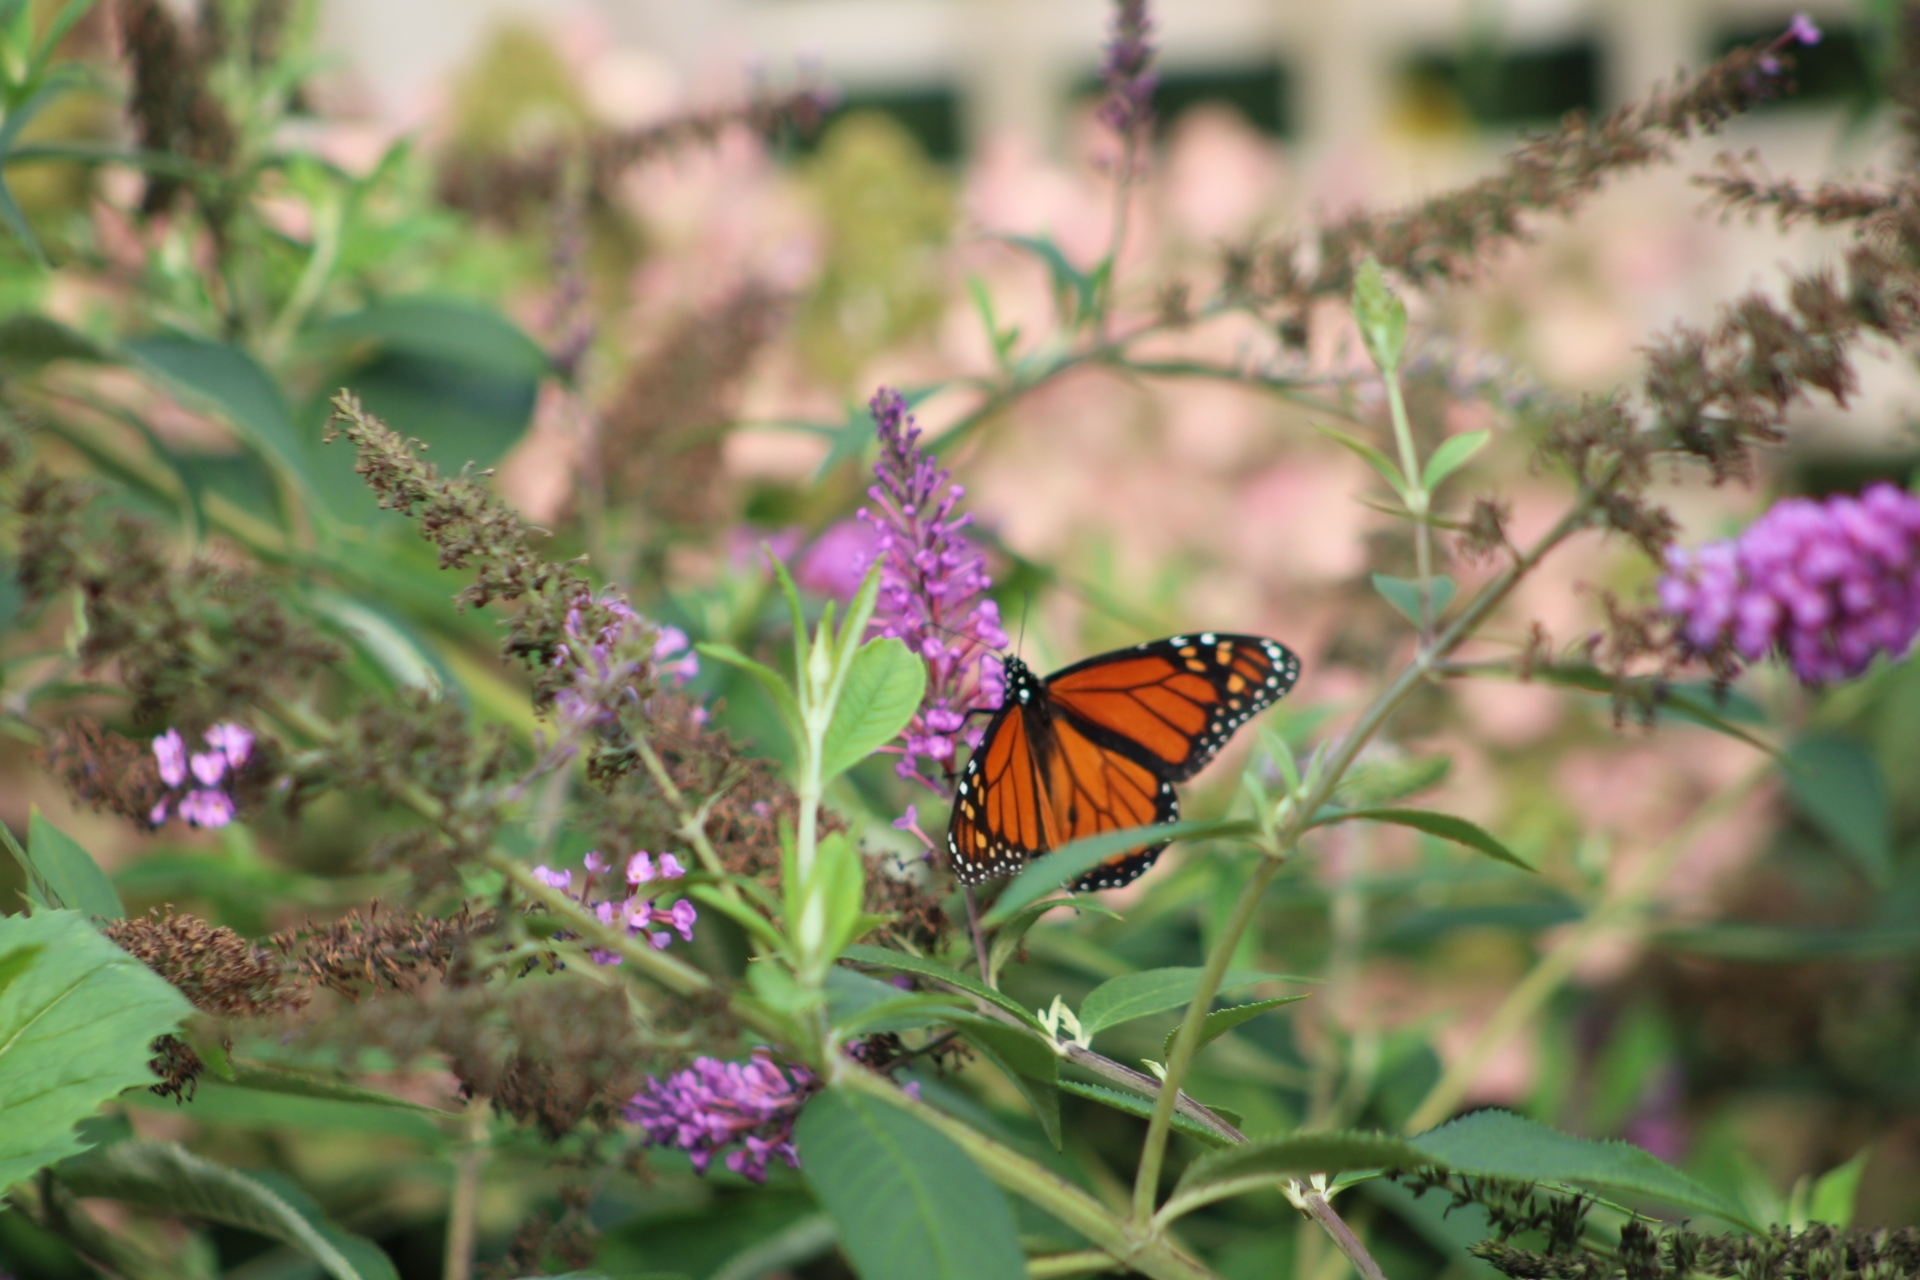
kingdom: Animalia
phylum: Arthropoda
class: Insecta
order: Lepidoptera
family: Nymphalidae
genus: Danaus
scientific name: Danaus plexippus
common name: Monarch
